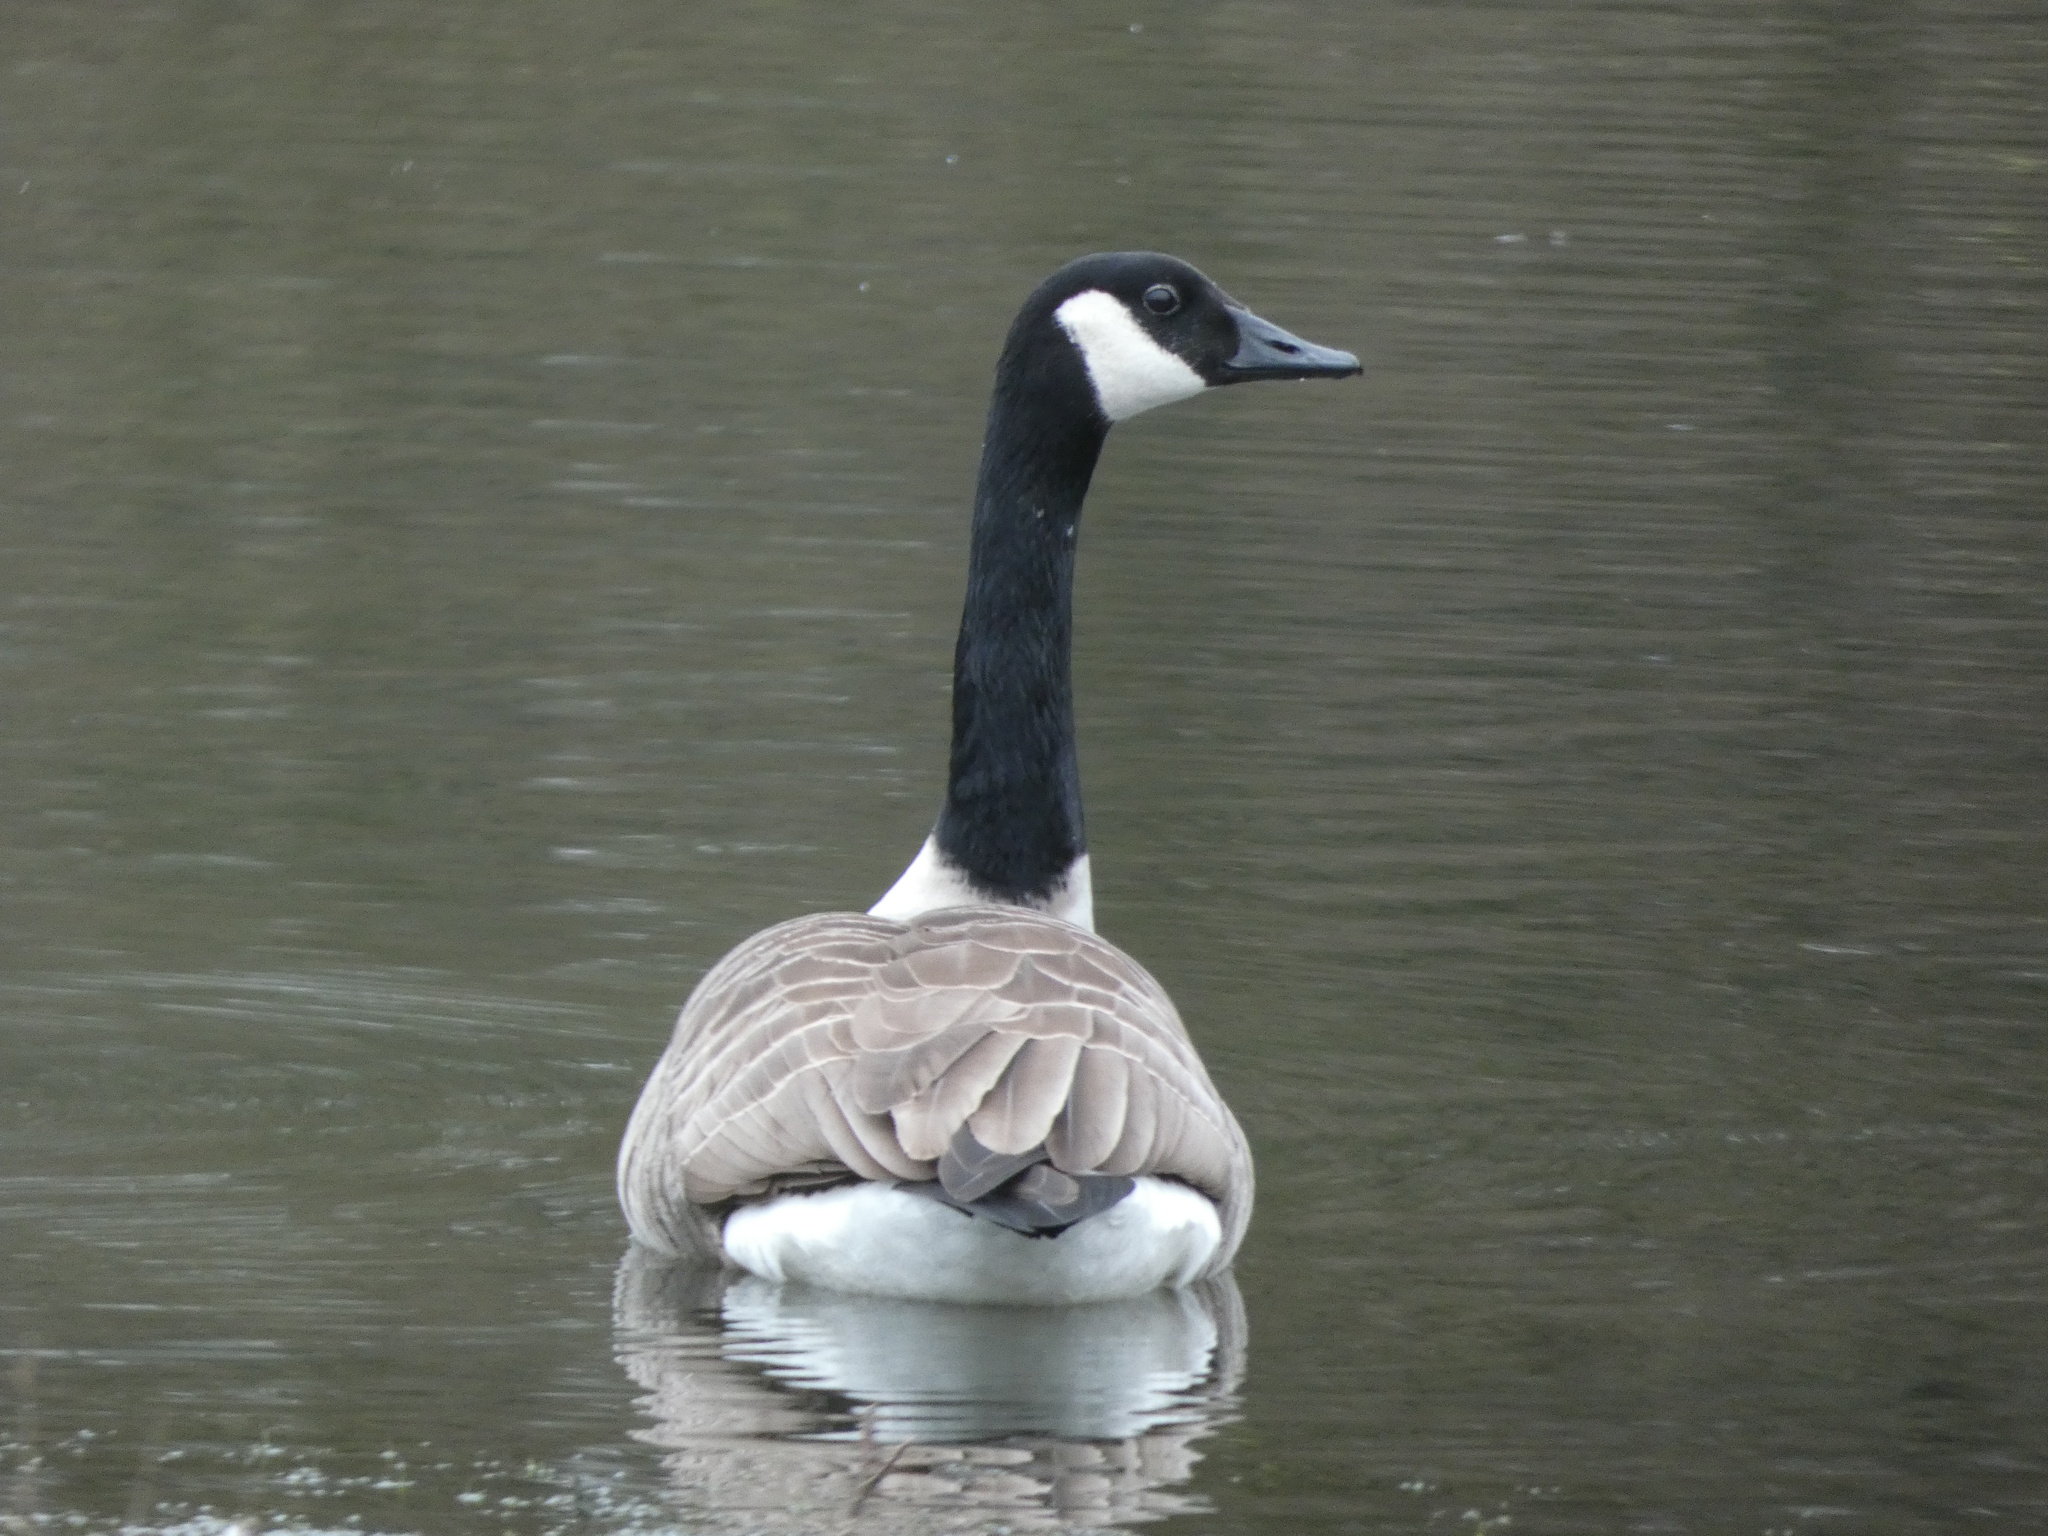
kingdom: Animalia
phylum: Chordata
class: Aves
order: Anseriformes
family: Anatidae
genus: Branta
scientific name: Branta canadensis
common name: Canada goose
